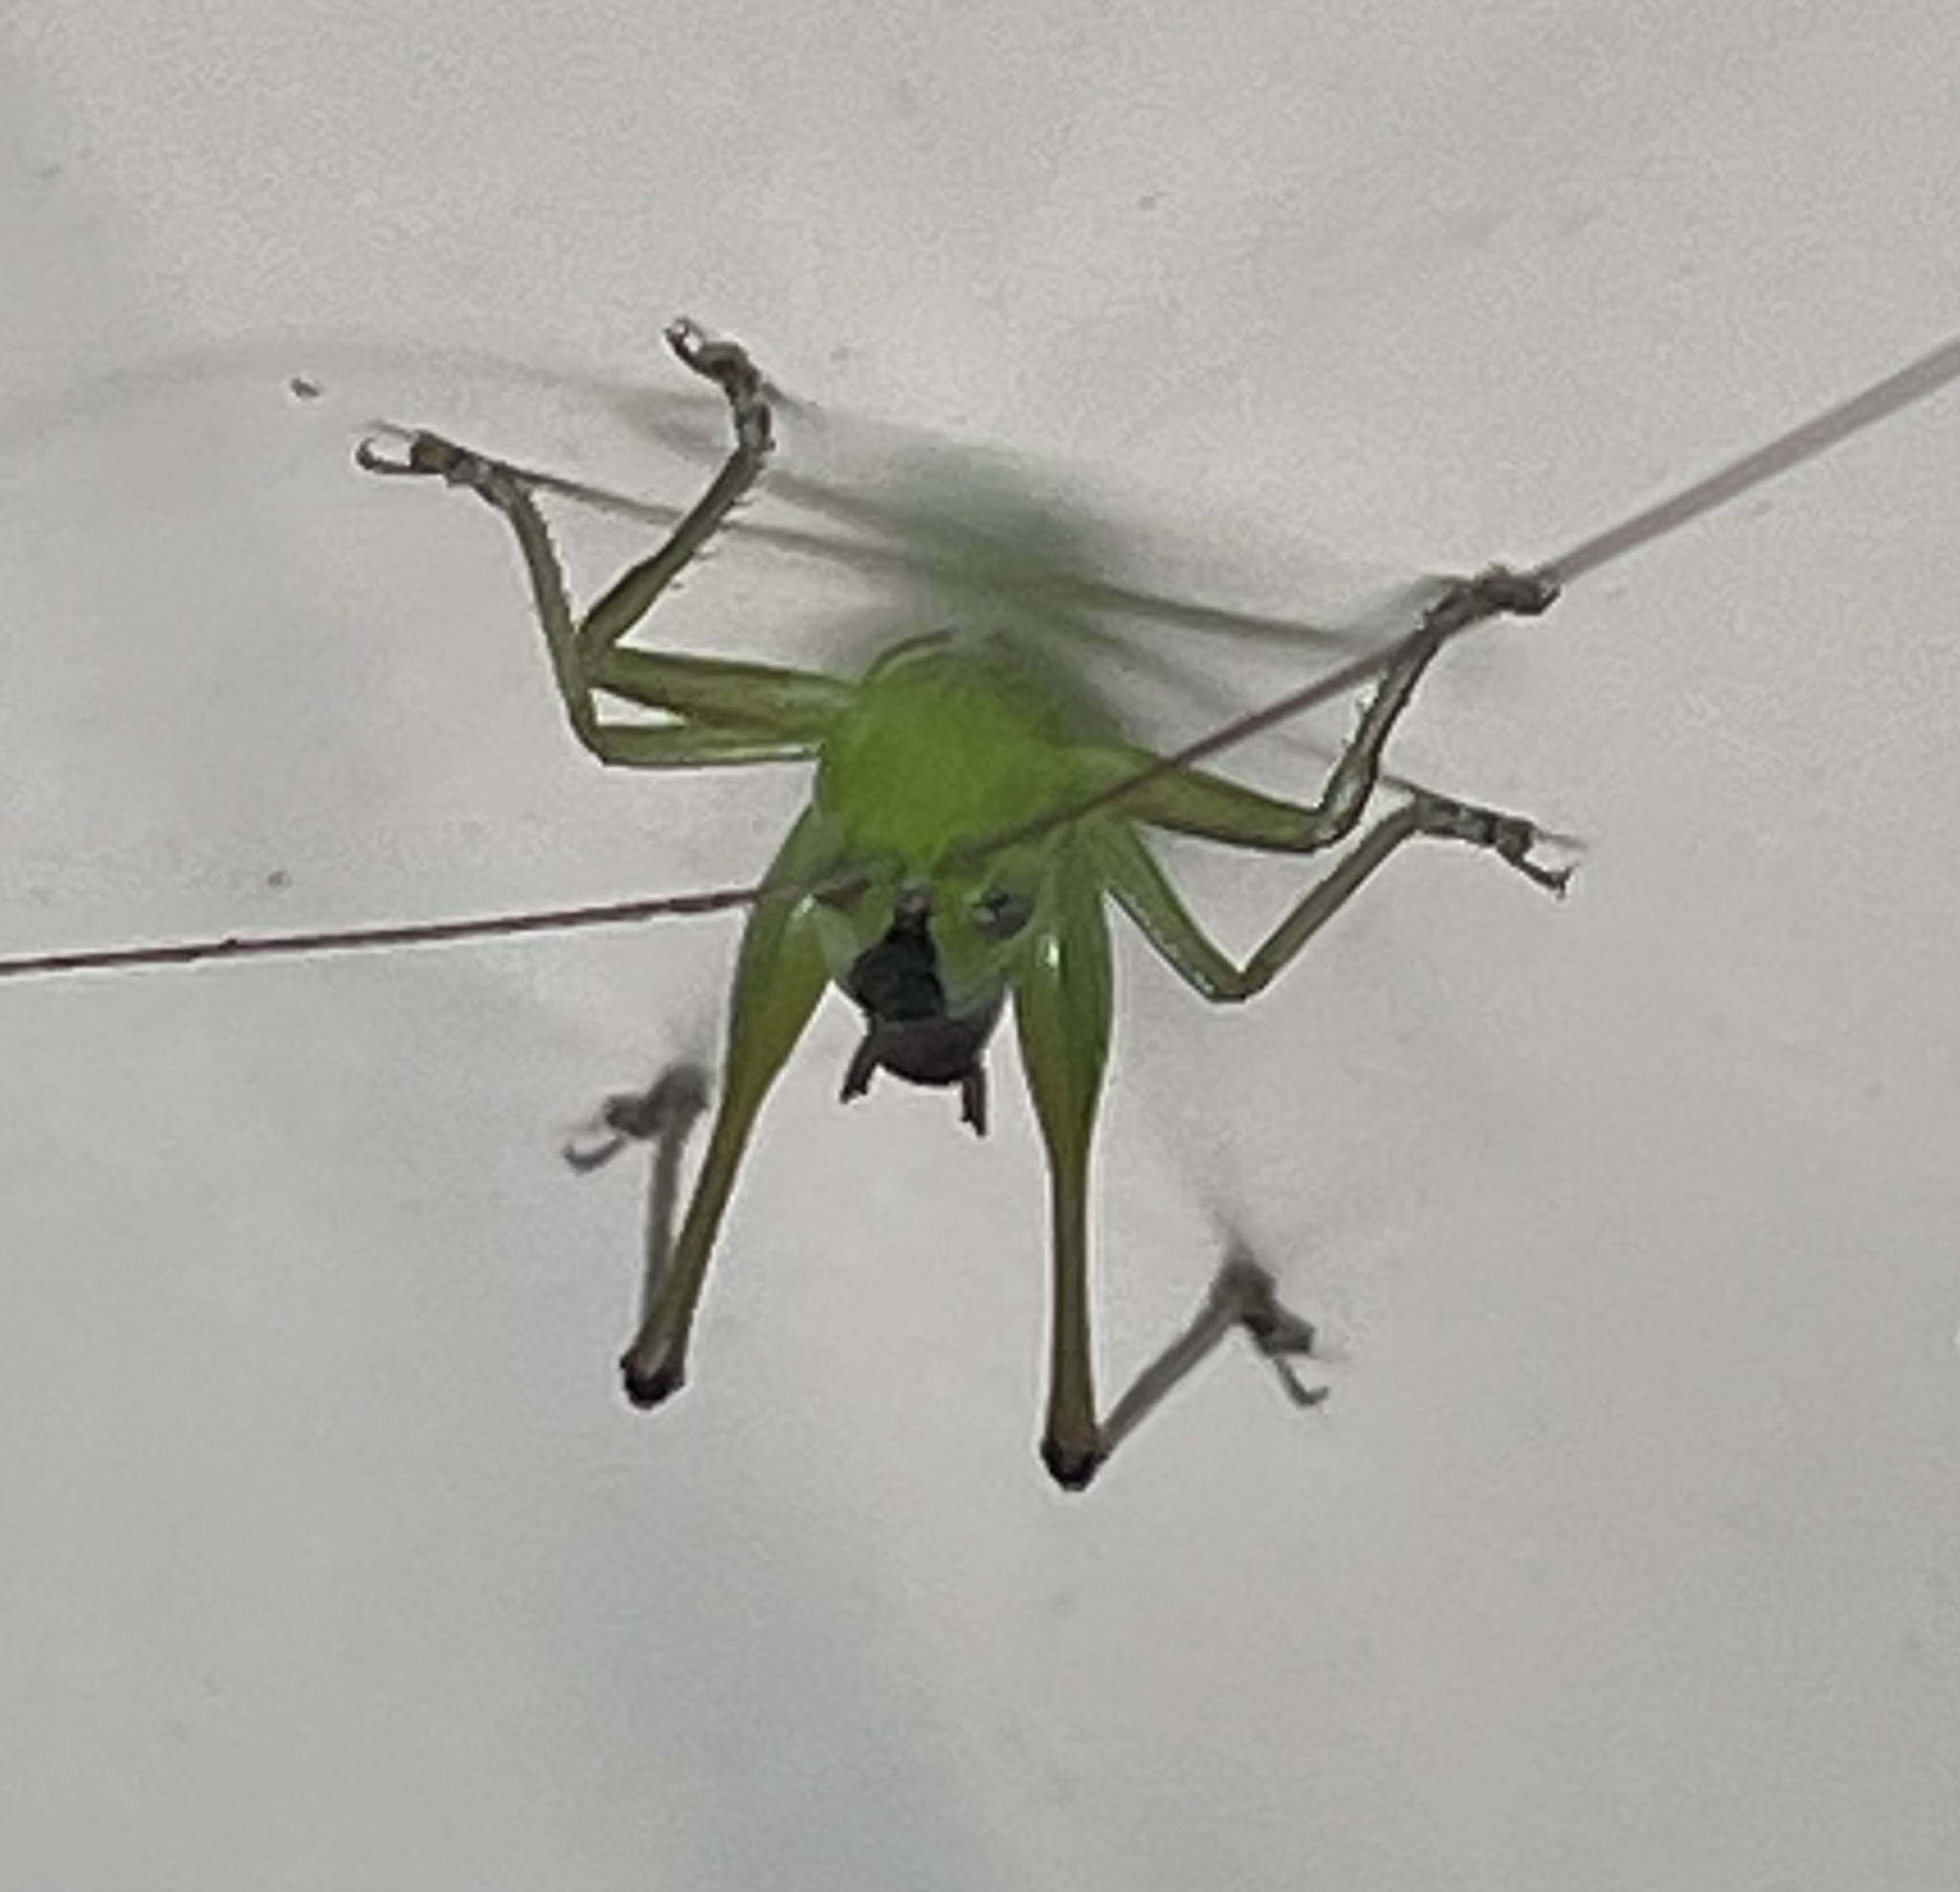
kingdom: Animalia
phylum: Arthropoda
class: Insecta
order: Orthoptera
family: Tettigoniidae
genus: Conocephalus
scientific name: Conocephalus semivittatus
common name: Blackish meadow katydid
